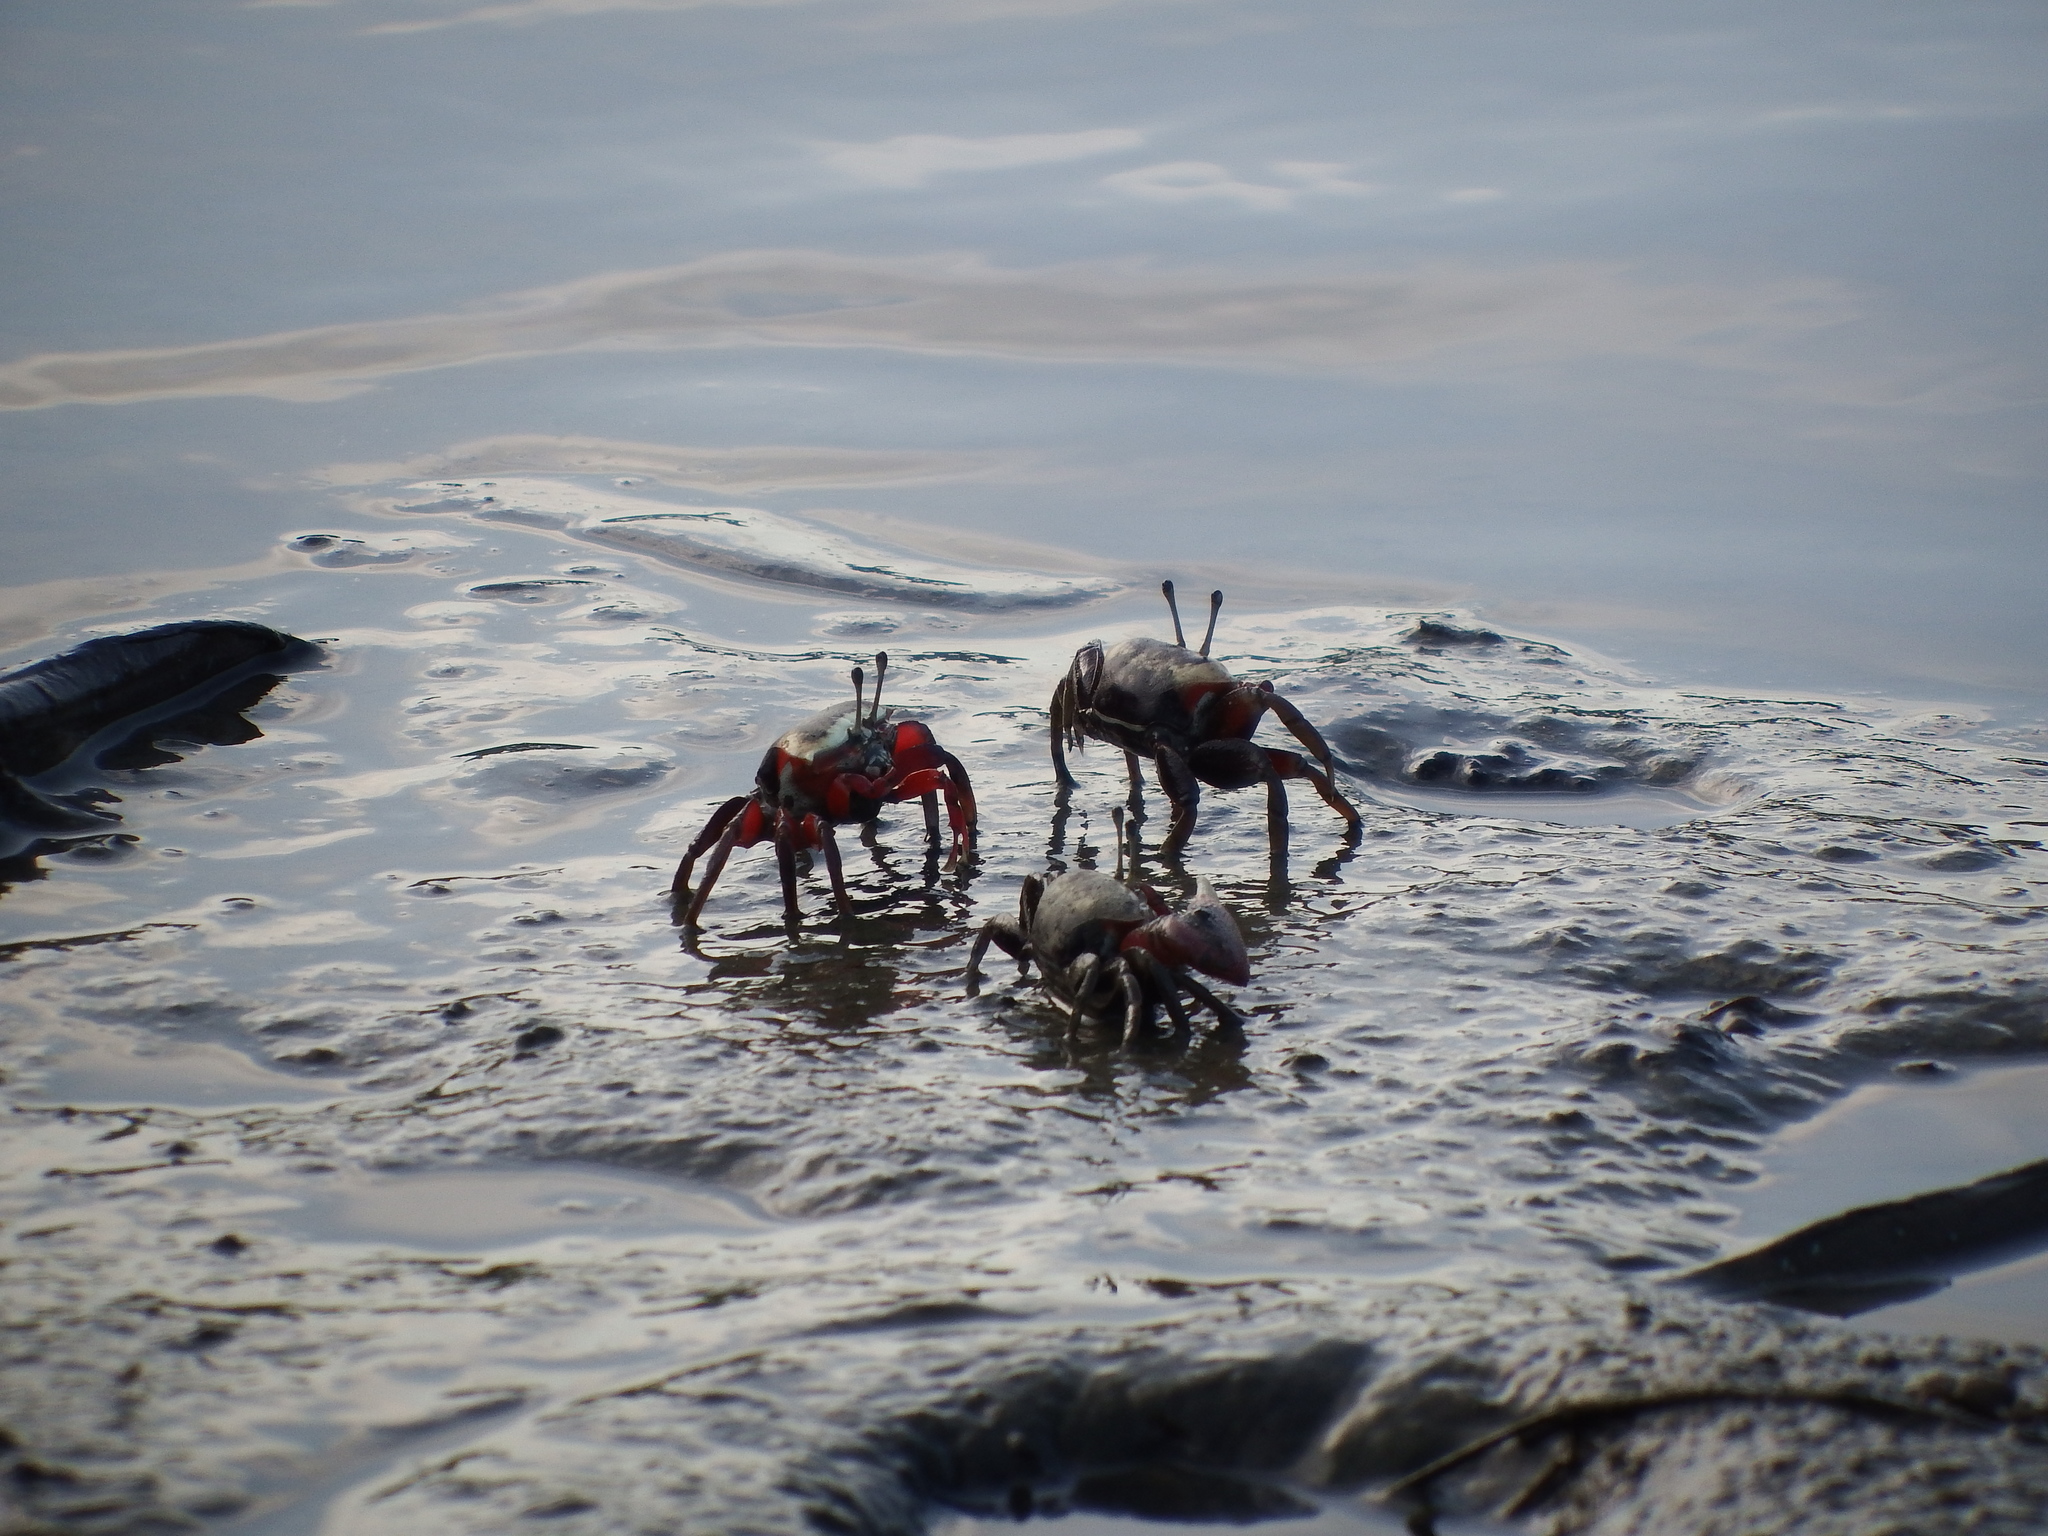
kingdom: Animalia
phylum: Arthropoda
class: Malacostraca
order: Decapoda
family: Ocypodidae
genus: Tubuca
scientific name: Tubuca arcuata
